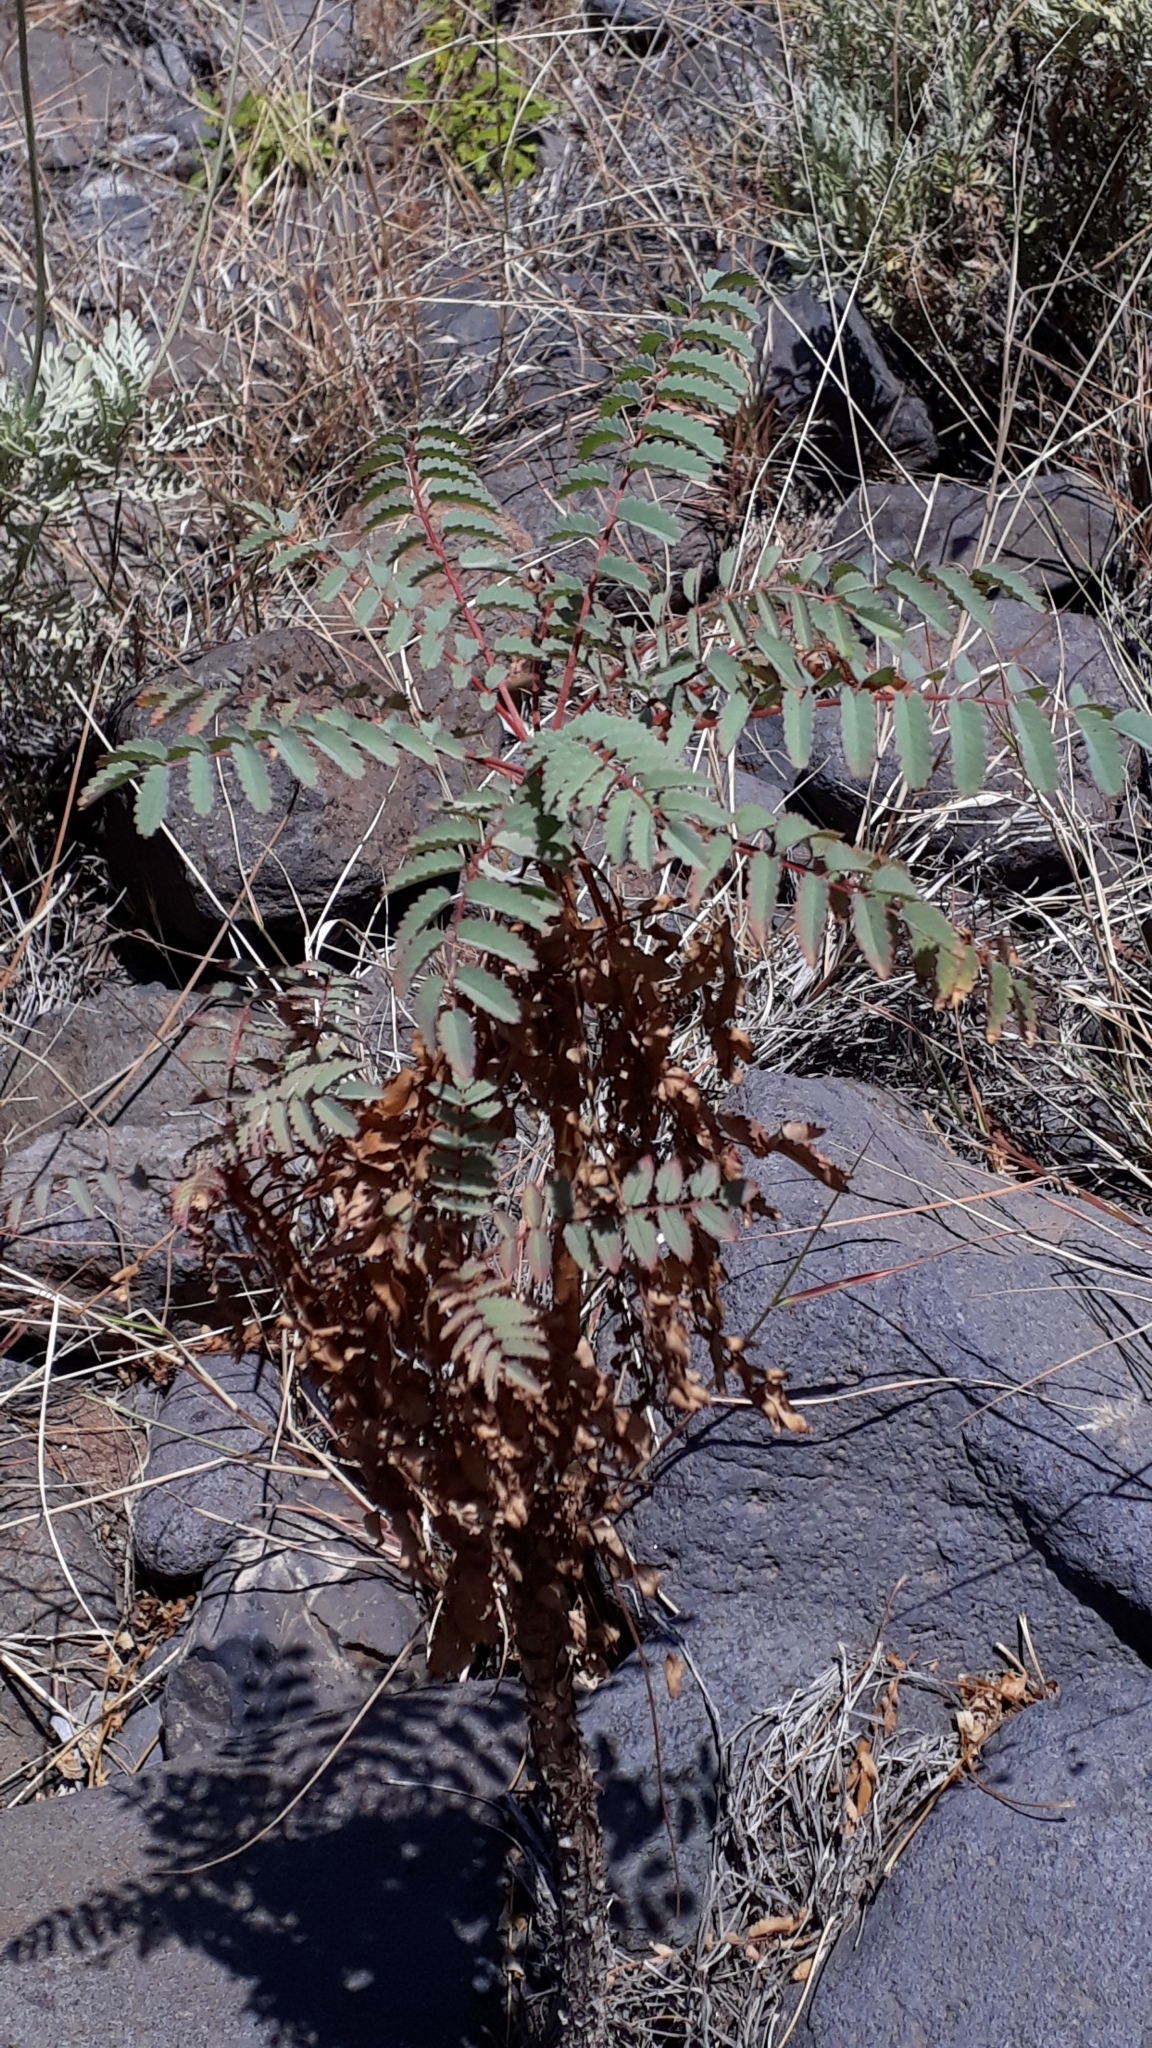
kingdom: Plantae
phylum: Tracheophyta
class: Magnoliopsida
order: Rosales
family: Rosaceae
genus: Marcetella
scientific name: Marcetella moquiniana
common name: Burnet tree
